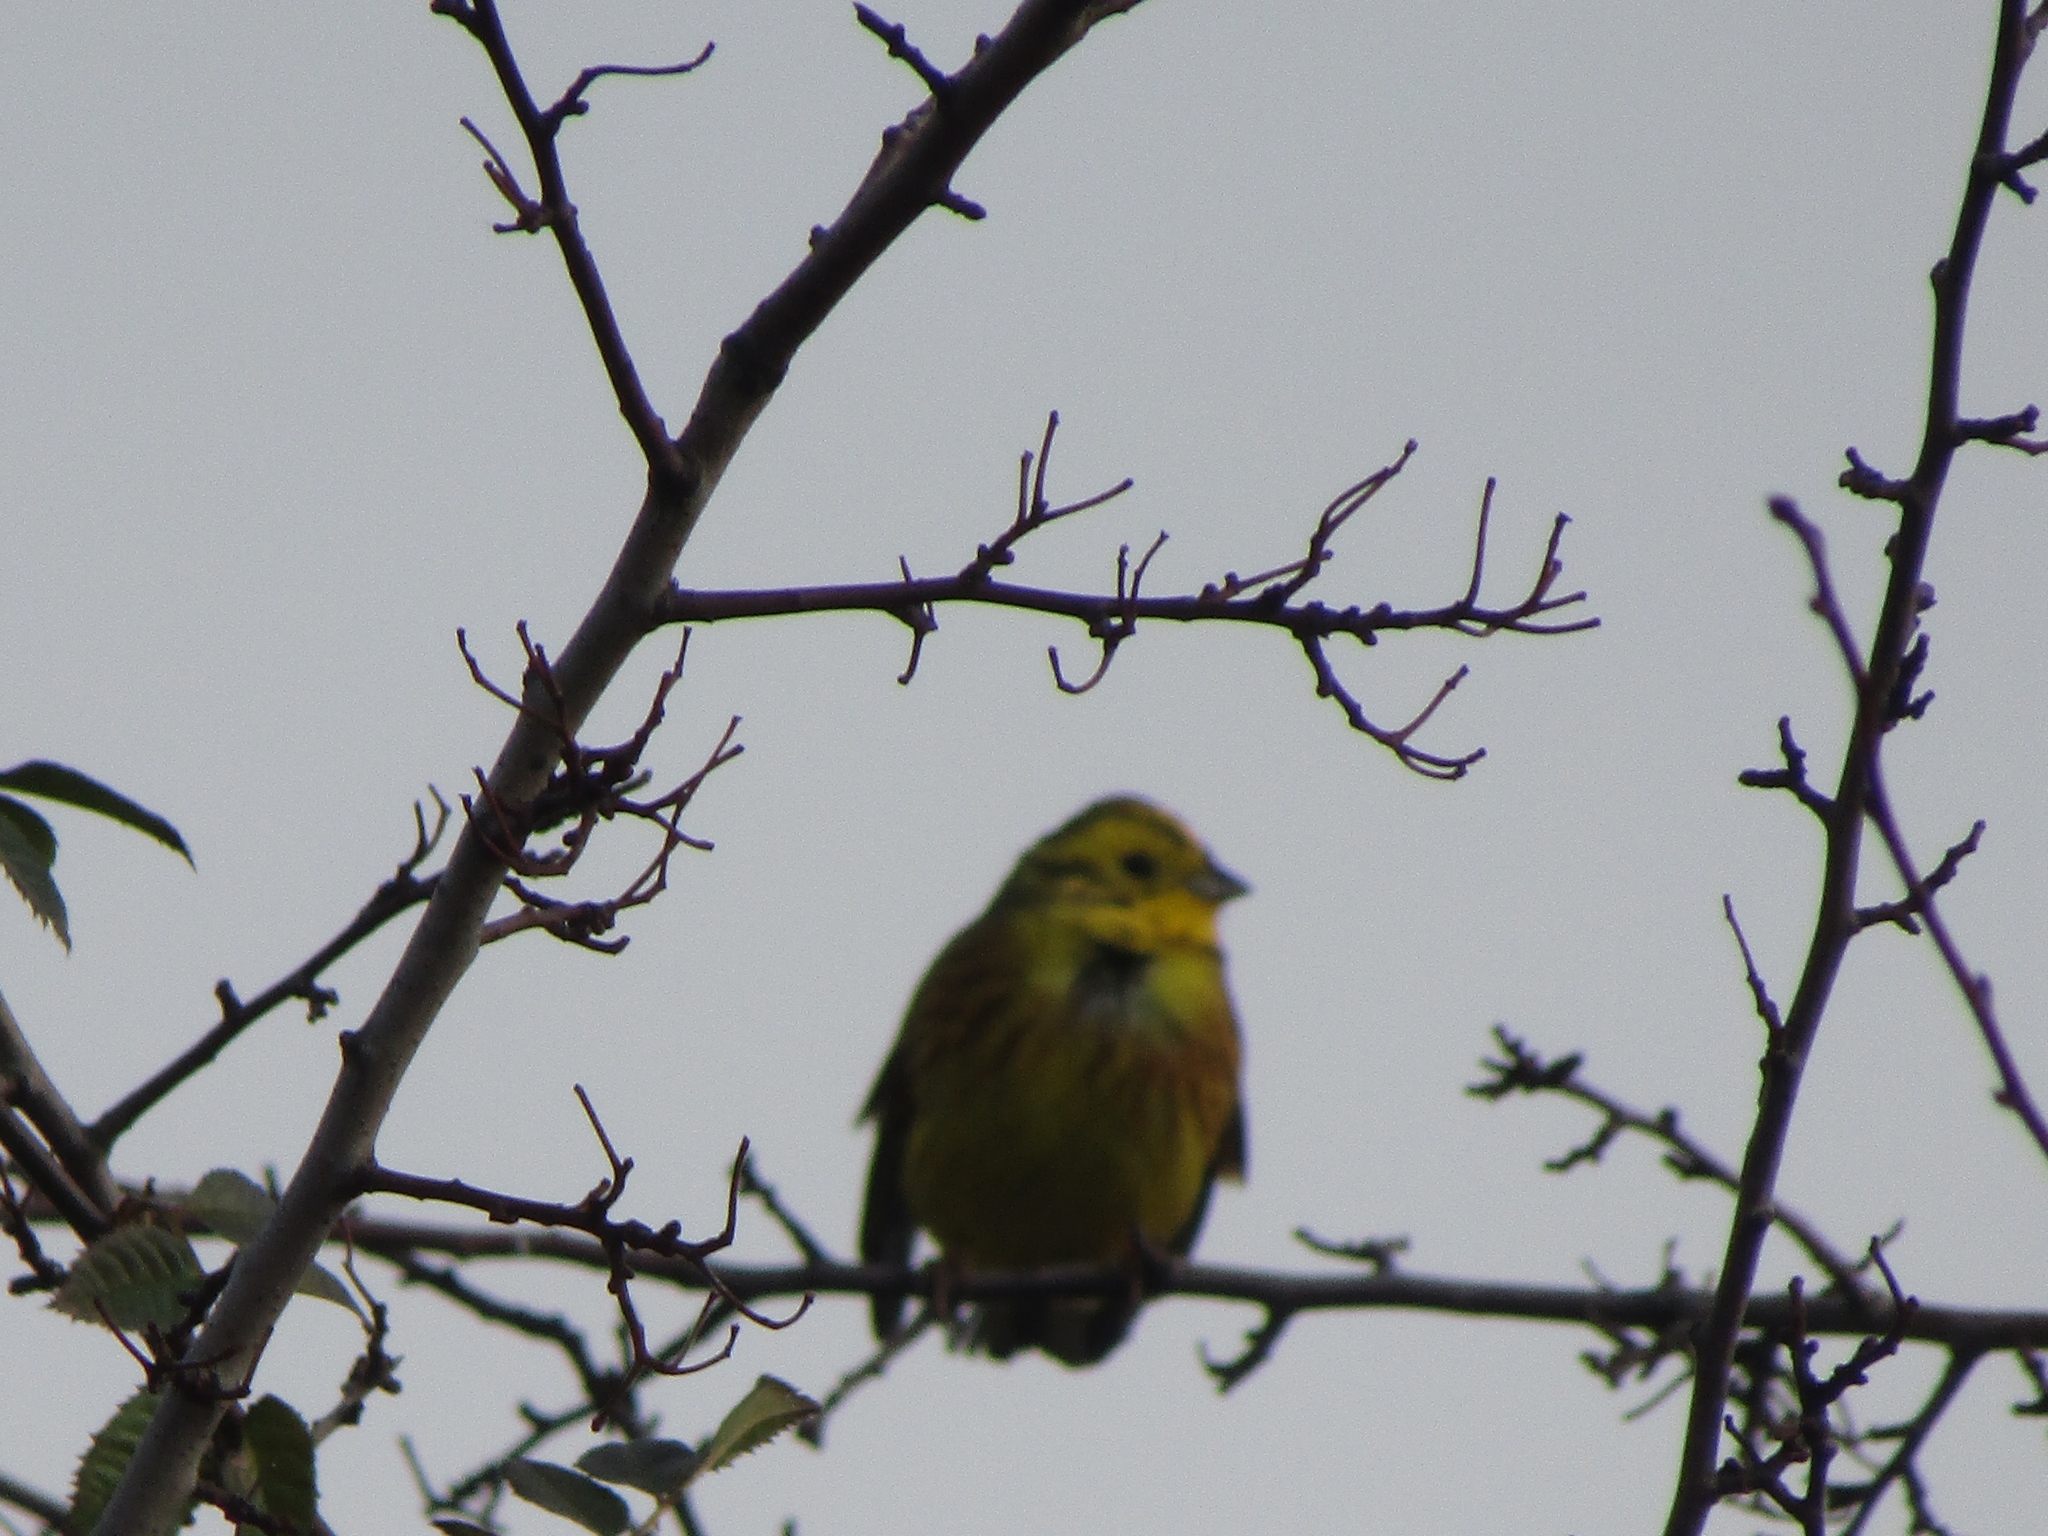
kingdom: Animalia
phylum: Chordata
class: Aves
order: Passeriformes
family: Emberizidae
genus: Emberiza
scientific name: Emberiza citrinella
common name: Yellowhammer
